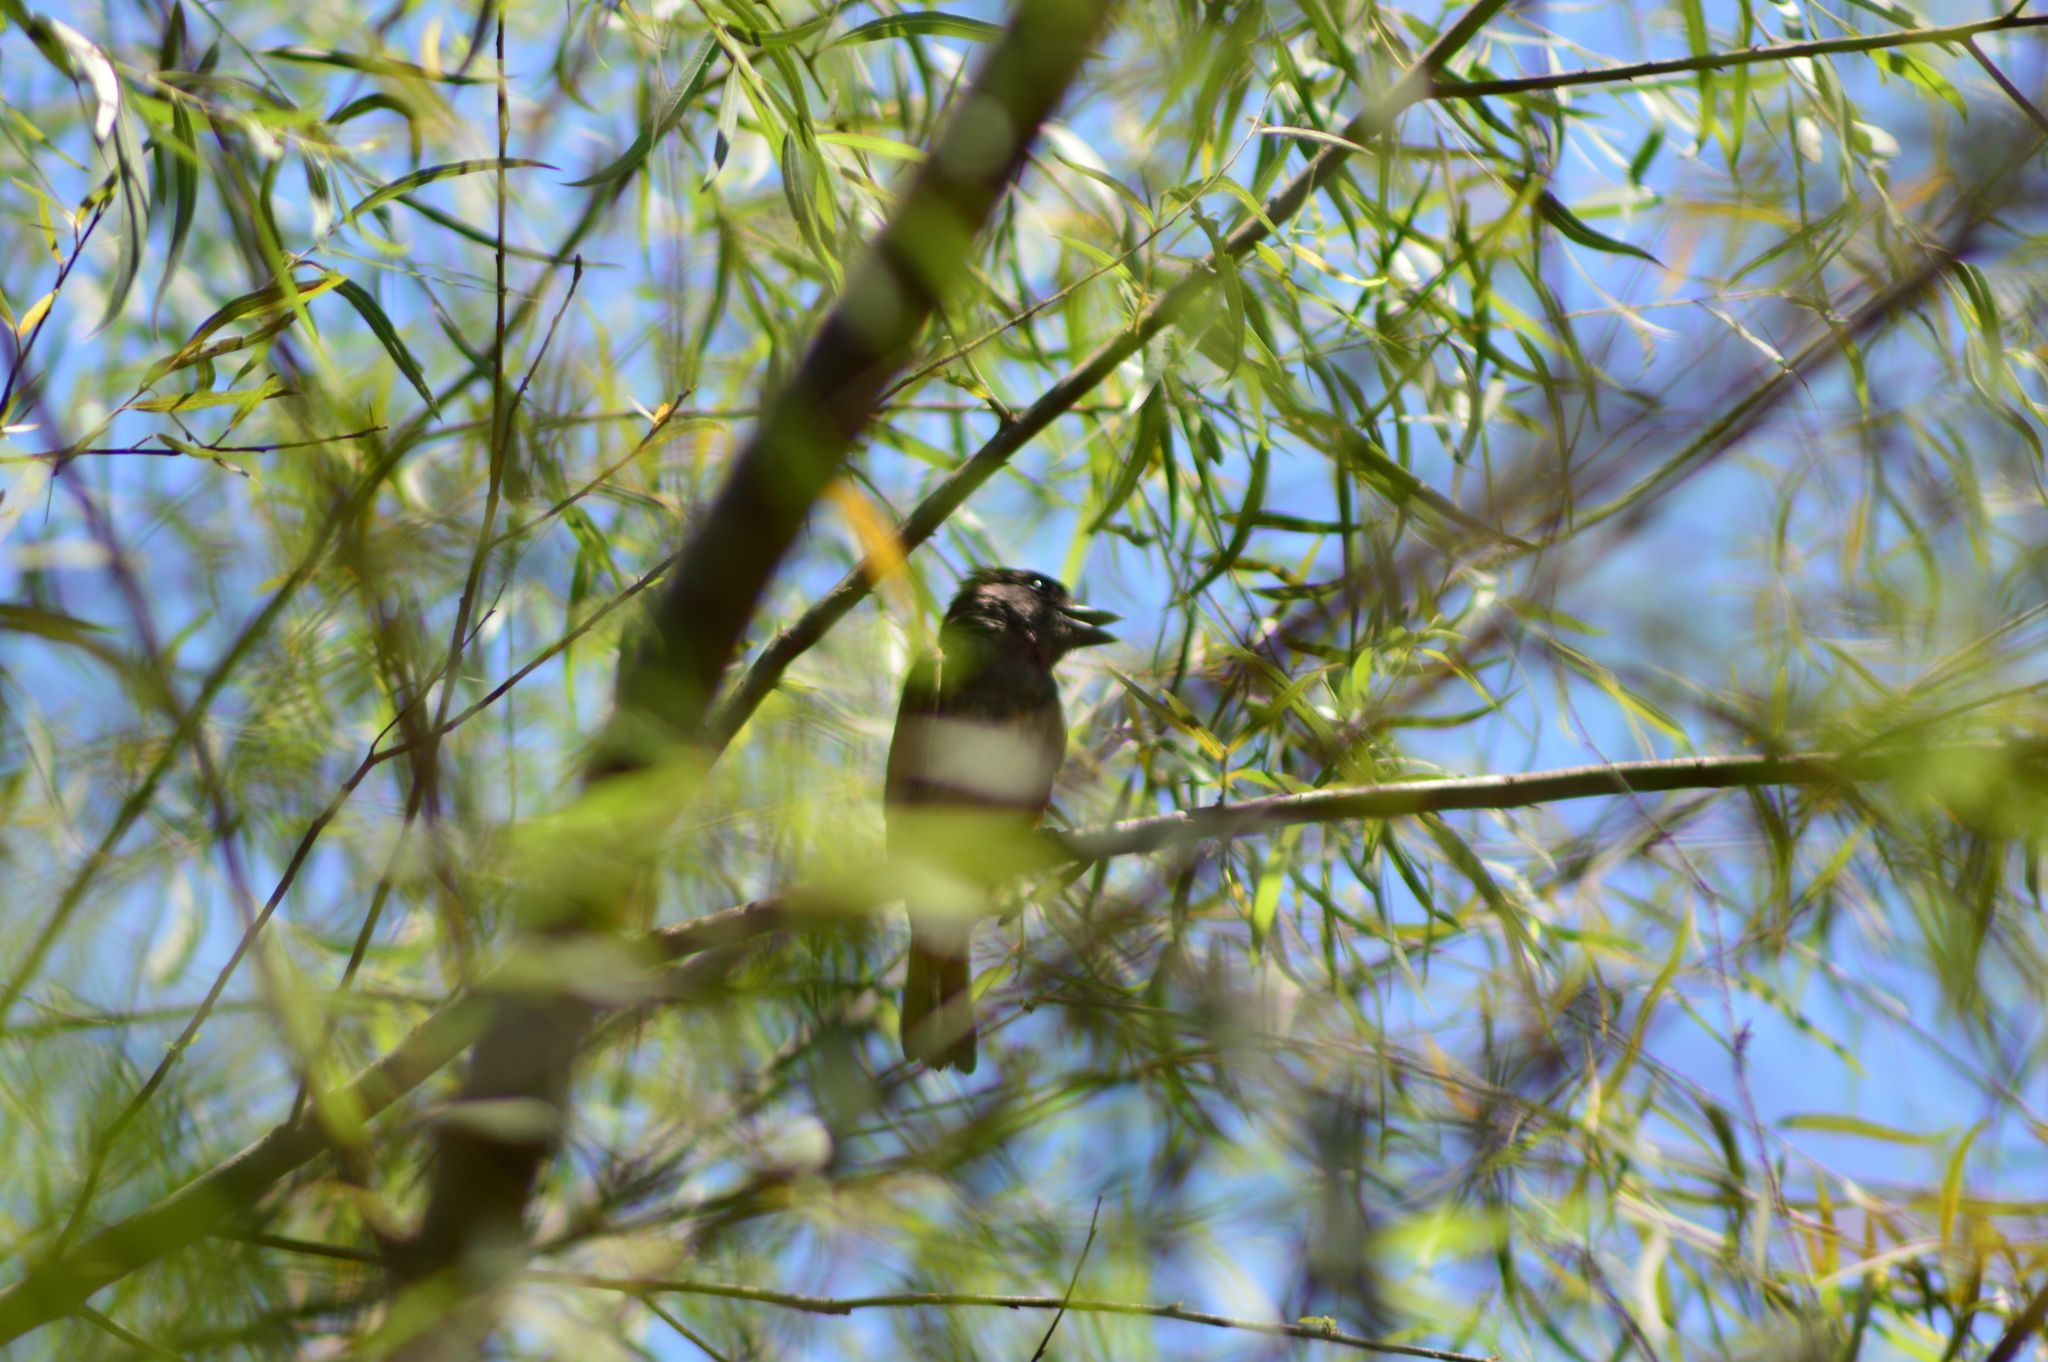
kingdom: Animalia
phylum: Chordata
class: Aves
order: Passeriformes
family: Cotingidae
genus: Pachyramphus
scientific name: Pachyramphus aglaiae
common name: Rose-throated becard
